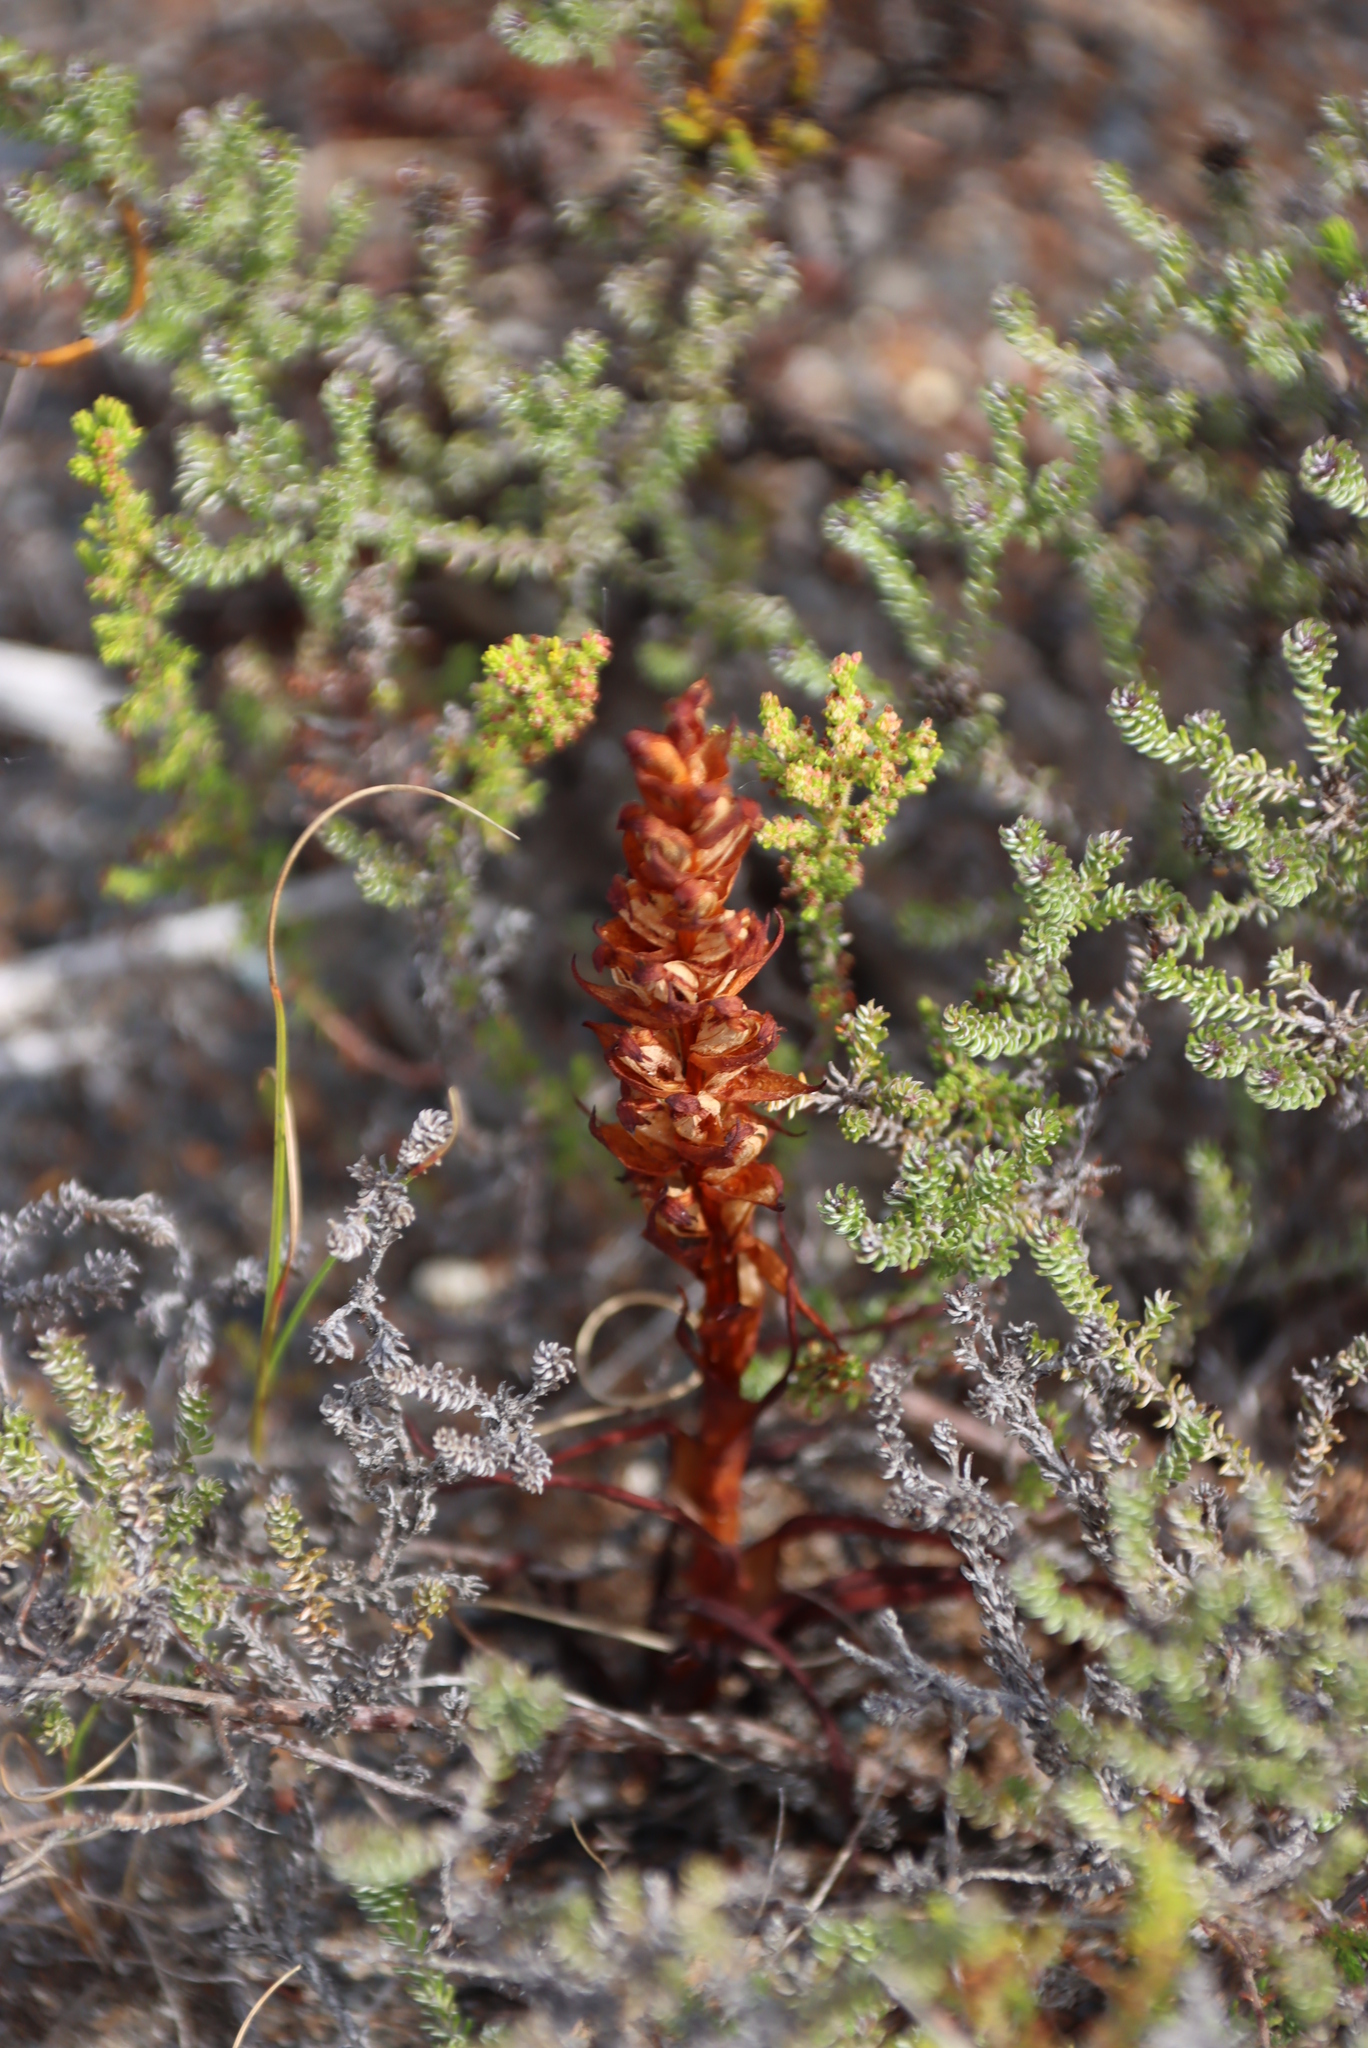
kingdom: Plantae
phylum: Tracheophyta
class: Liliopsida
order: Asparagales
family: Orchidaceae
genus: Disa
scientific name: Disa bracteata
